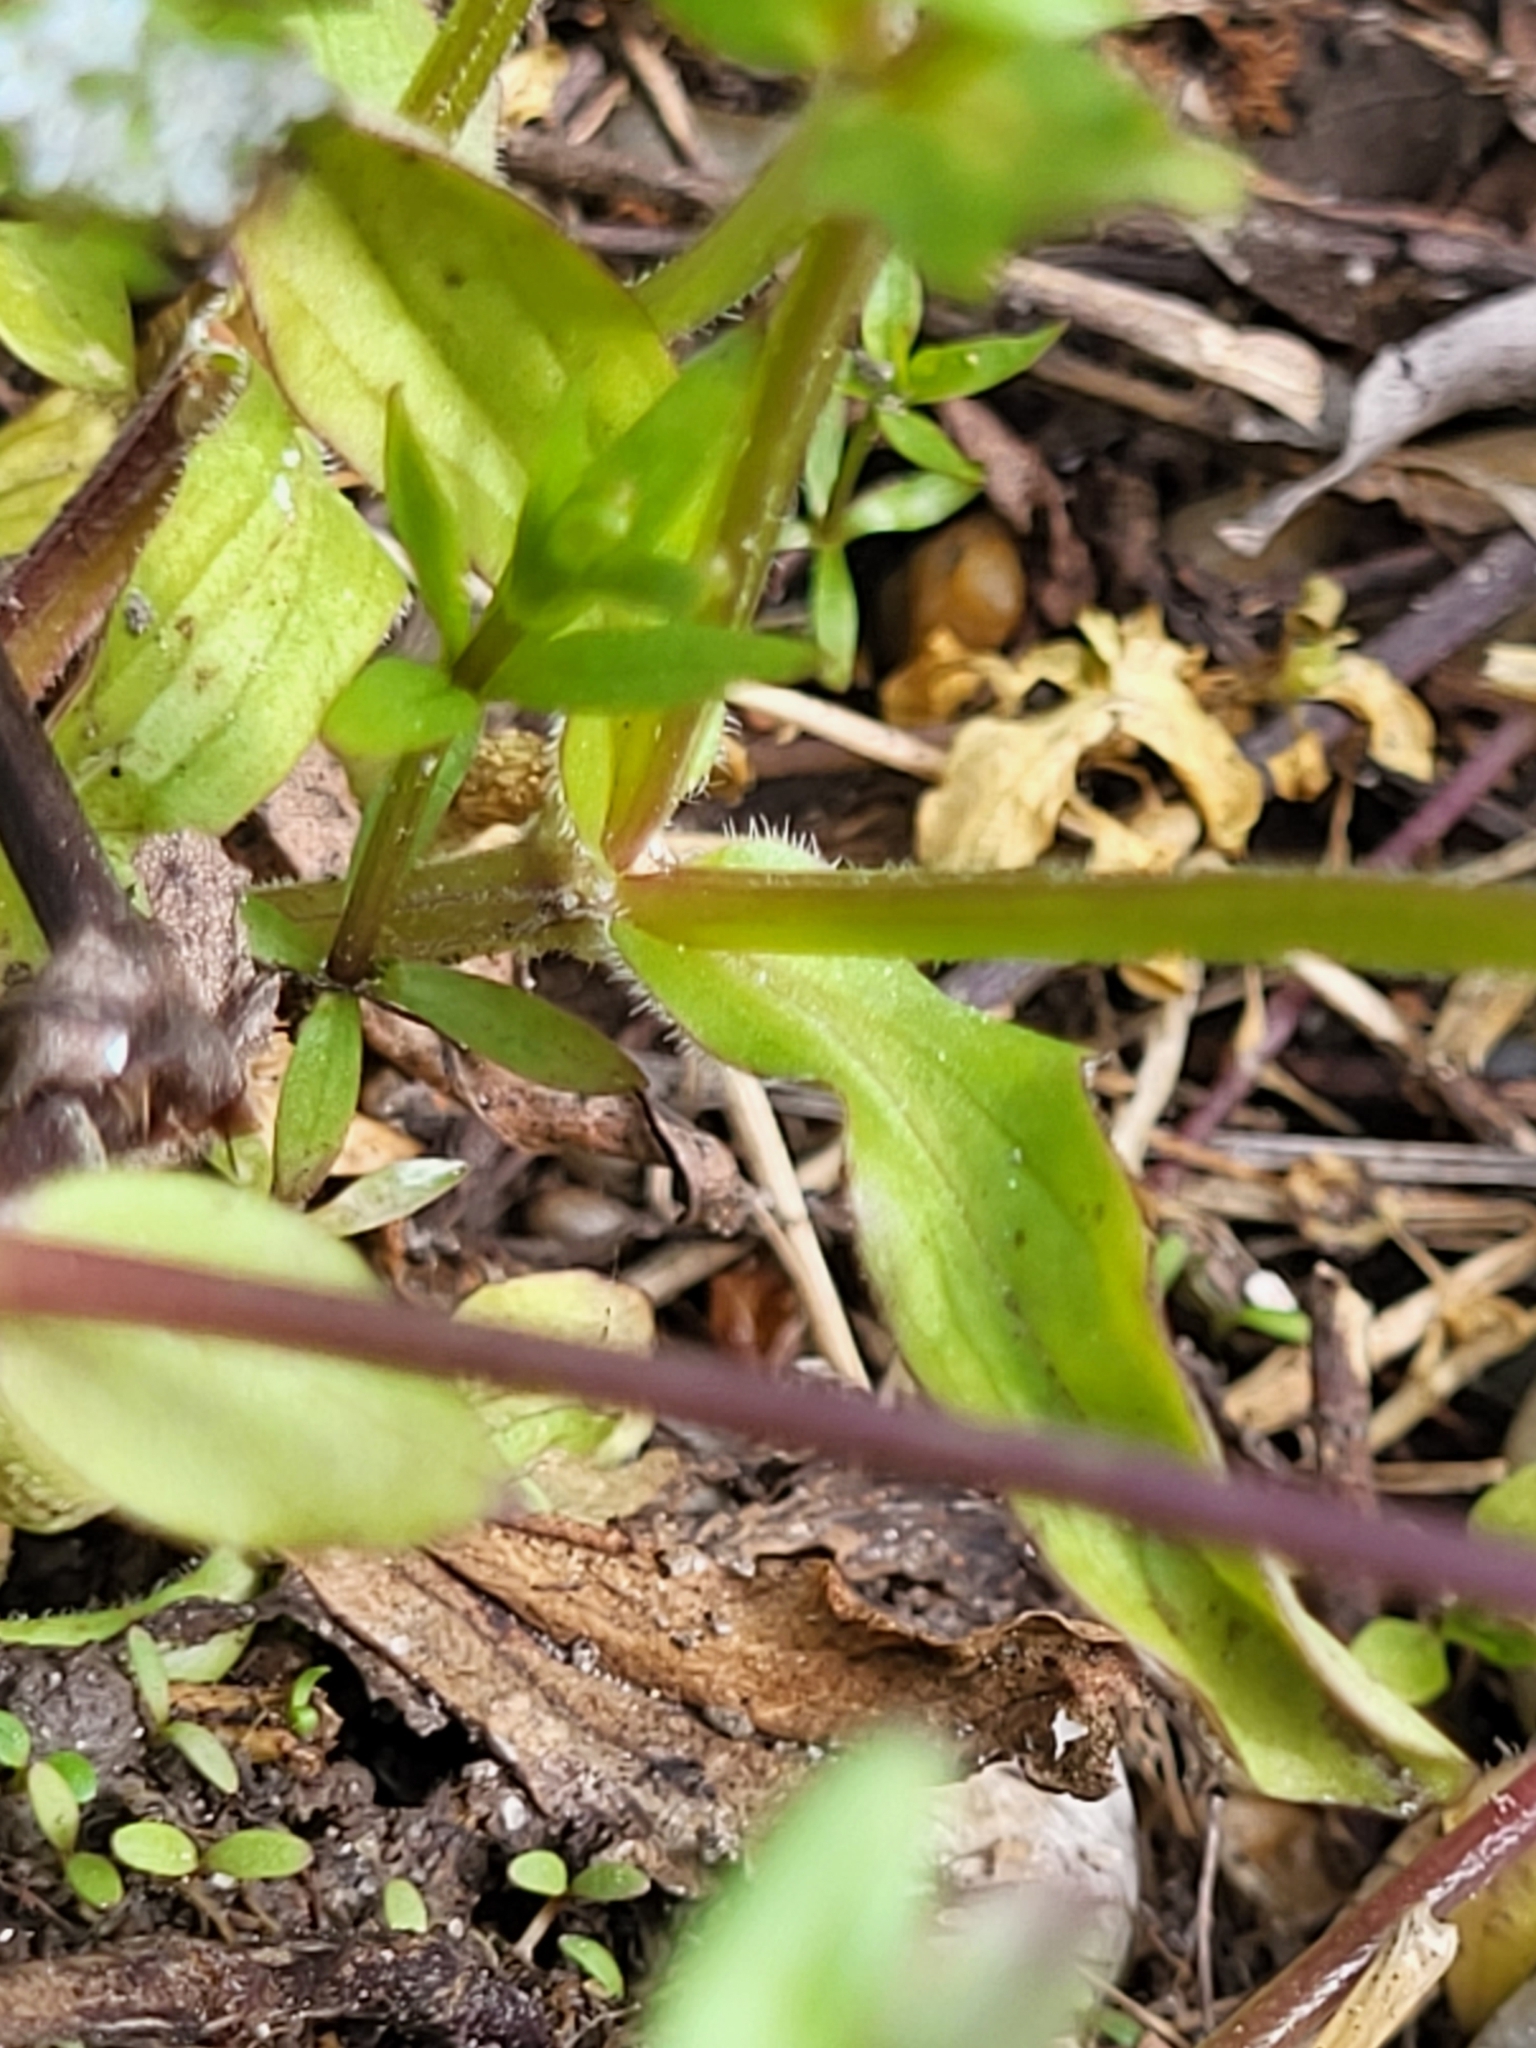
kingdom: Plantae
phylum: Tracheophyta
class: Magnoliopsida
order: Dipsacales
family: Caprifoliaceae
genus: Valerianella
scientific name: Valerianella locusta
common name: Common cornsalad
